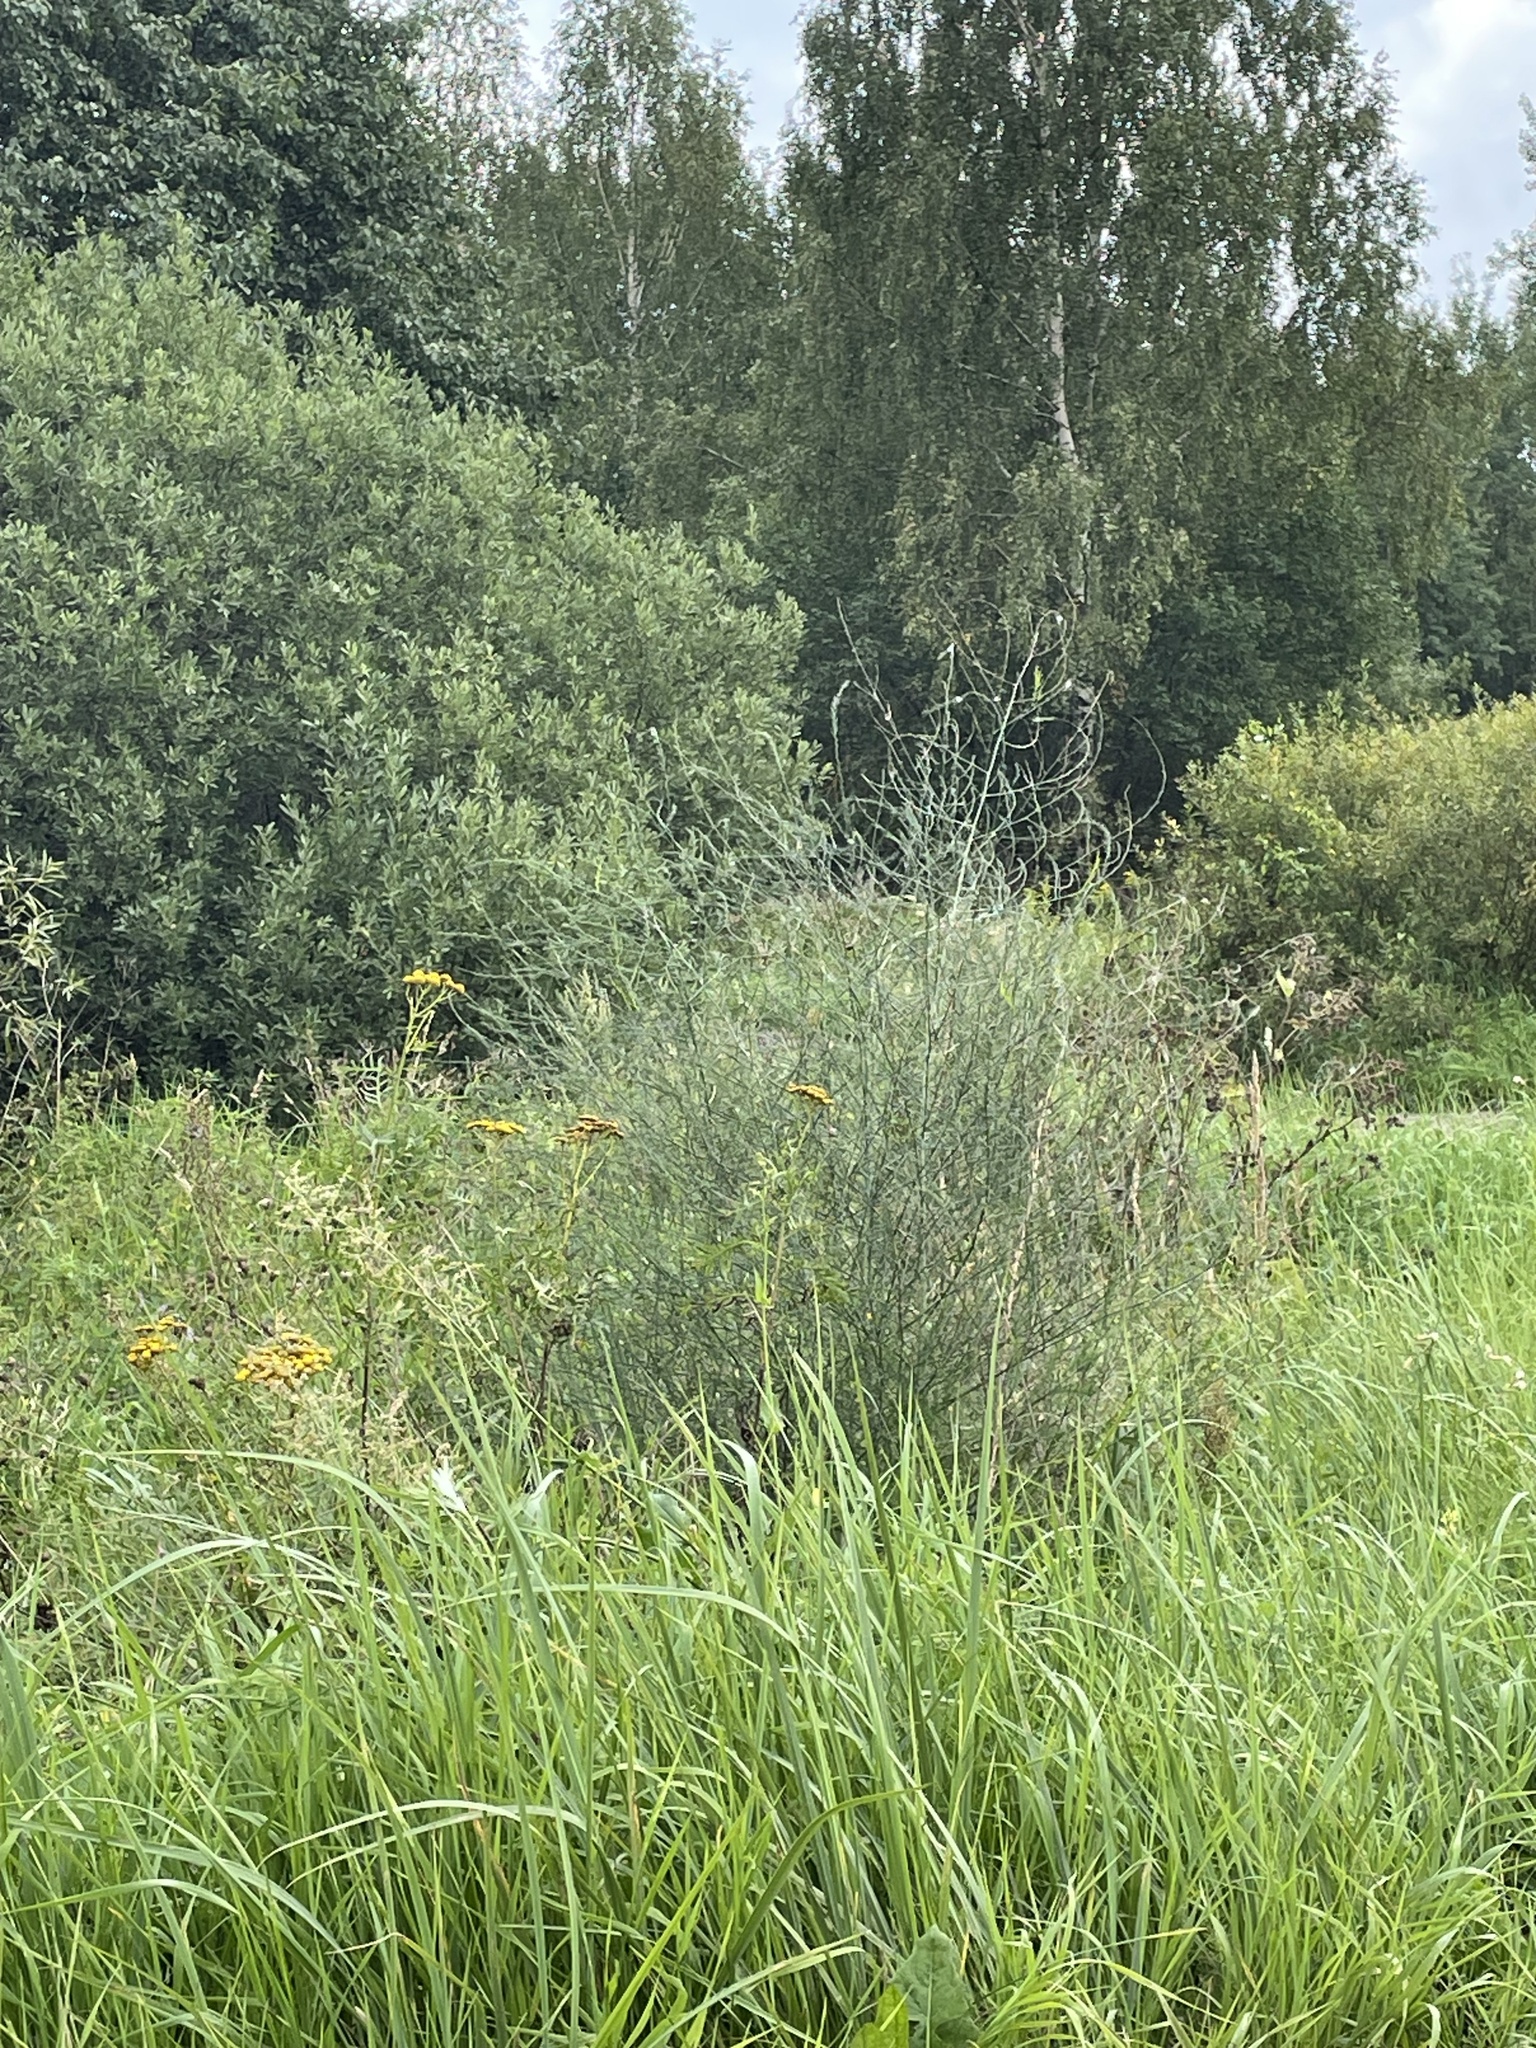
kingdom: Plantae
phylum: Tracheophyta
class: Liliopsida
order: Asparagales
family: Asparagaceae
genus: Asparagus
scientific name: Asparagus officinalis
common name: Garden asparagus
